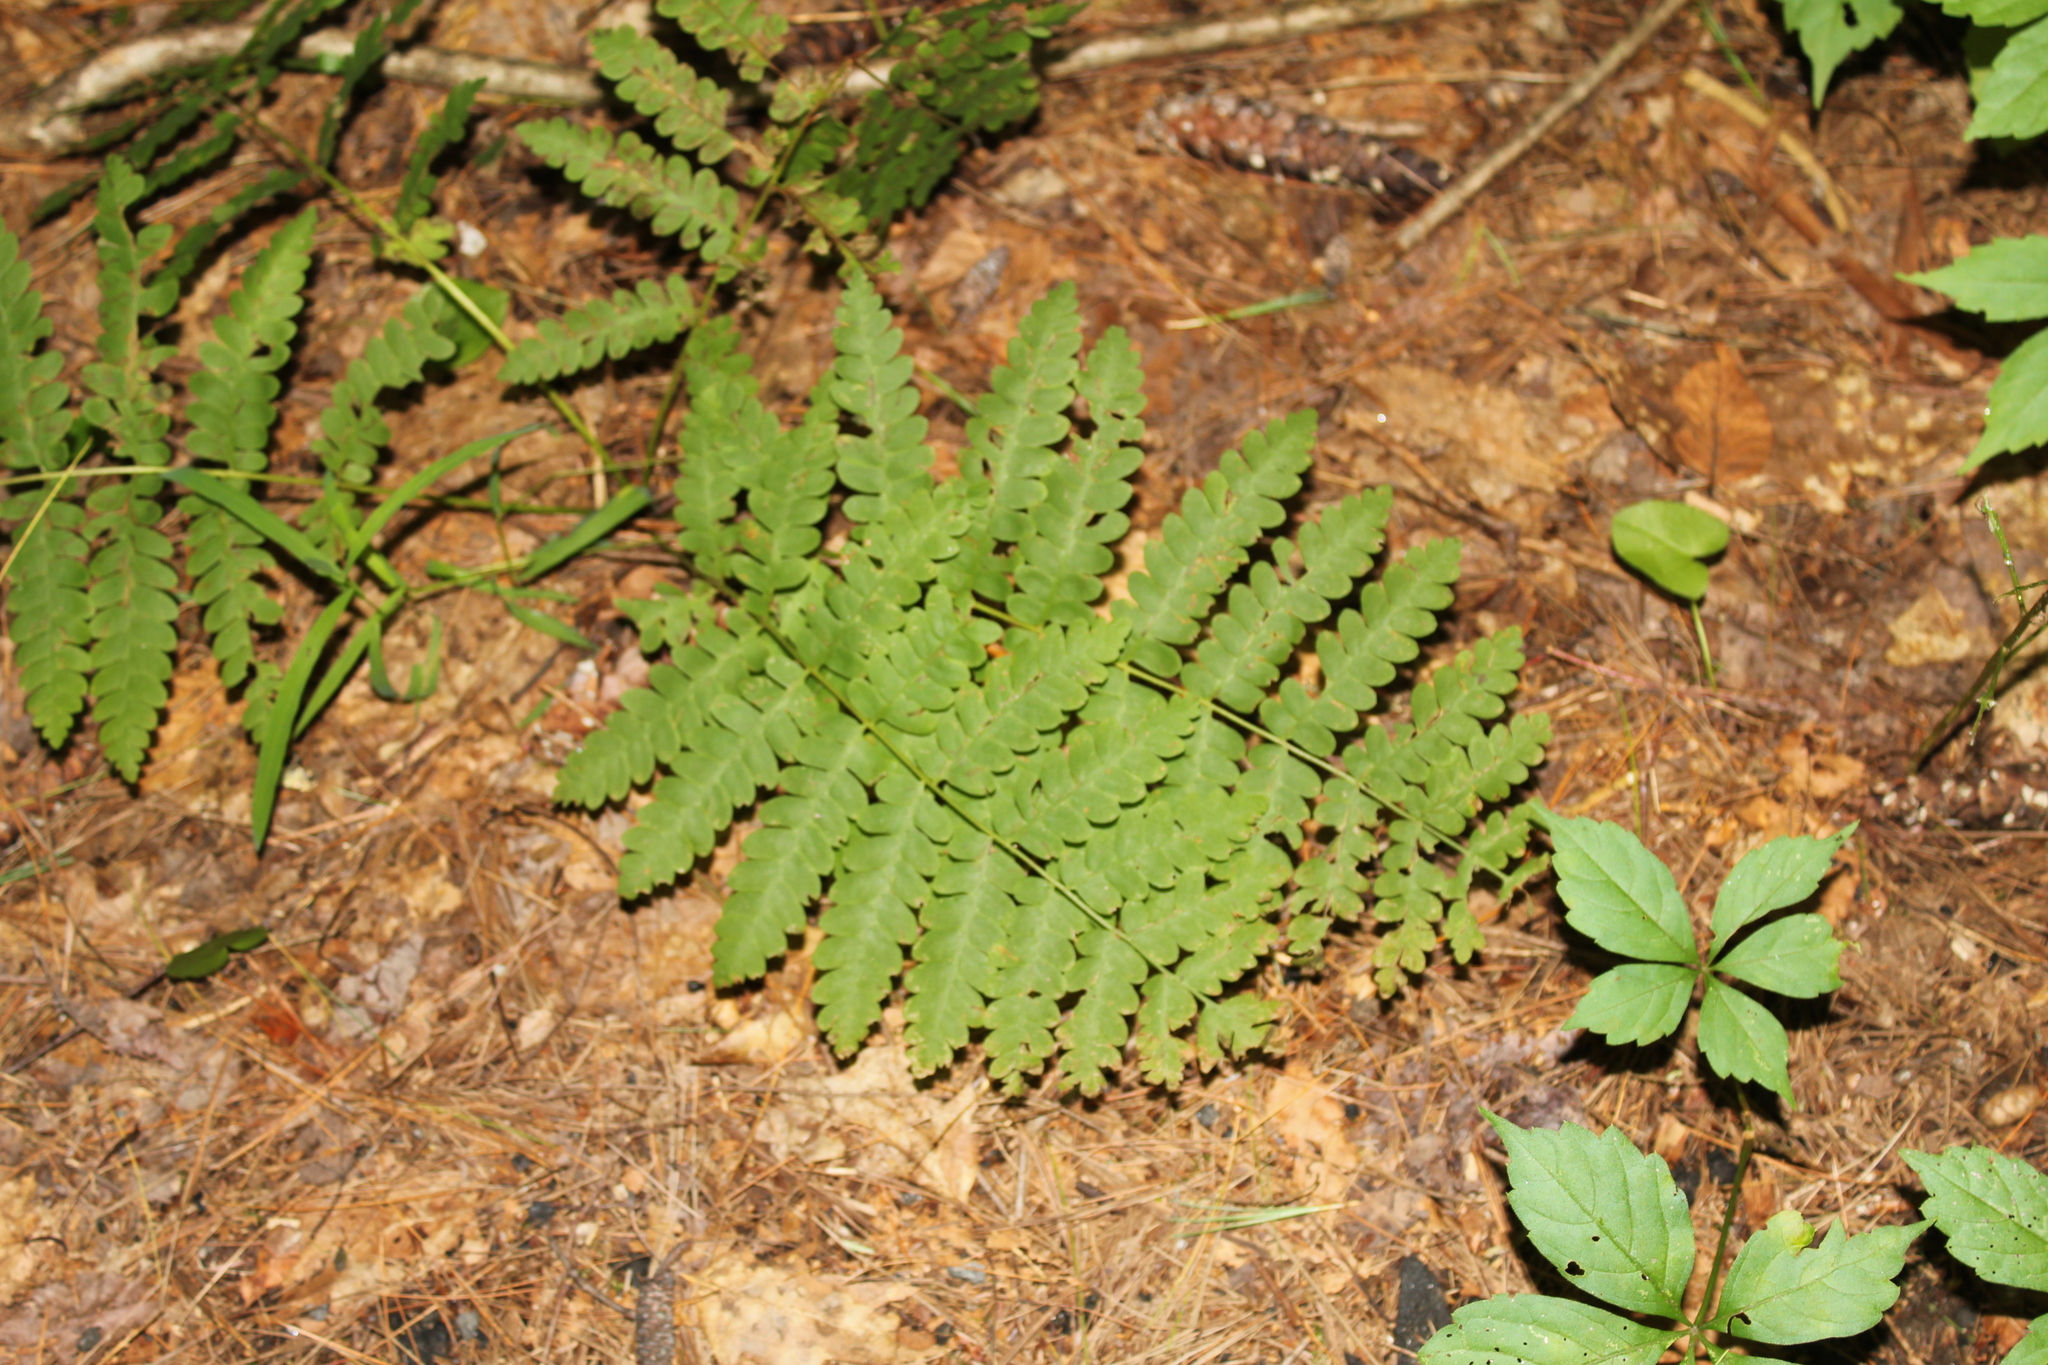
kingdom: Plantae
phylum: Tracheophyta
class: Polypodiopsida
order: Osmundales
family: Osmundaceae
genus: Claytosmunda
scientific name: Claytosmunda claytoniana
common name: Clayton's fern
